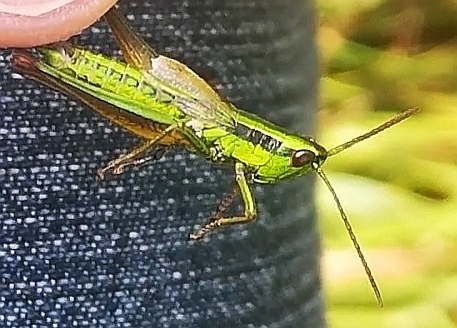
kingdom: Animalia
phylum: Arthropoda
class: Insecta
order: Orthoptera
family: Acrididae
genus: Euthystira
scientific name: Euthystira brachyptera
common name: Small gold grasshopper
